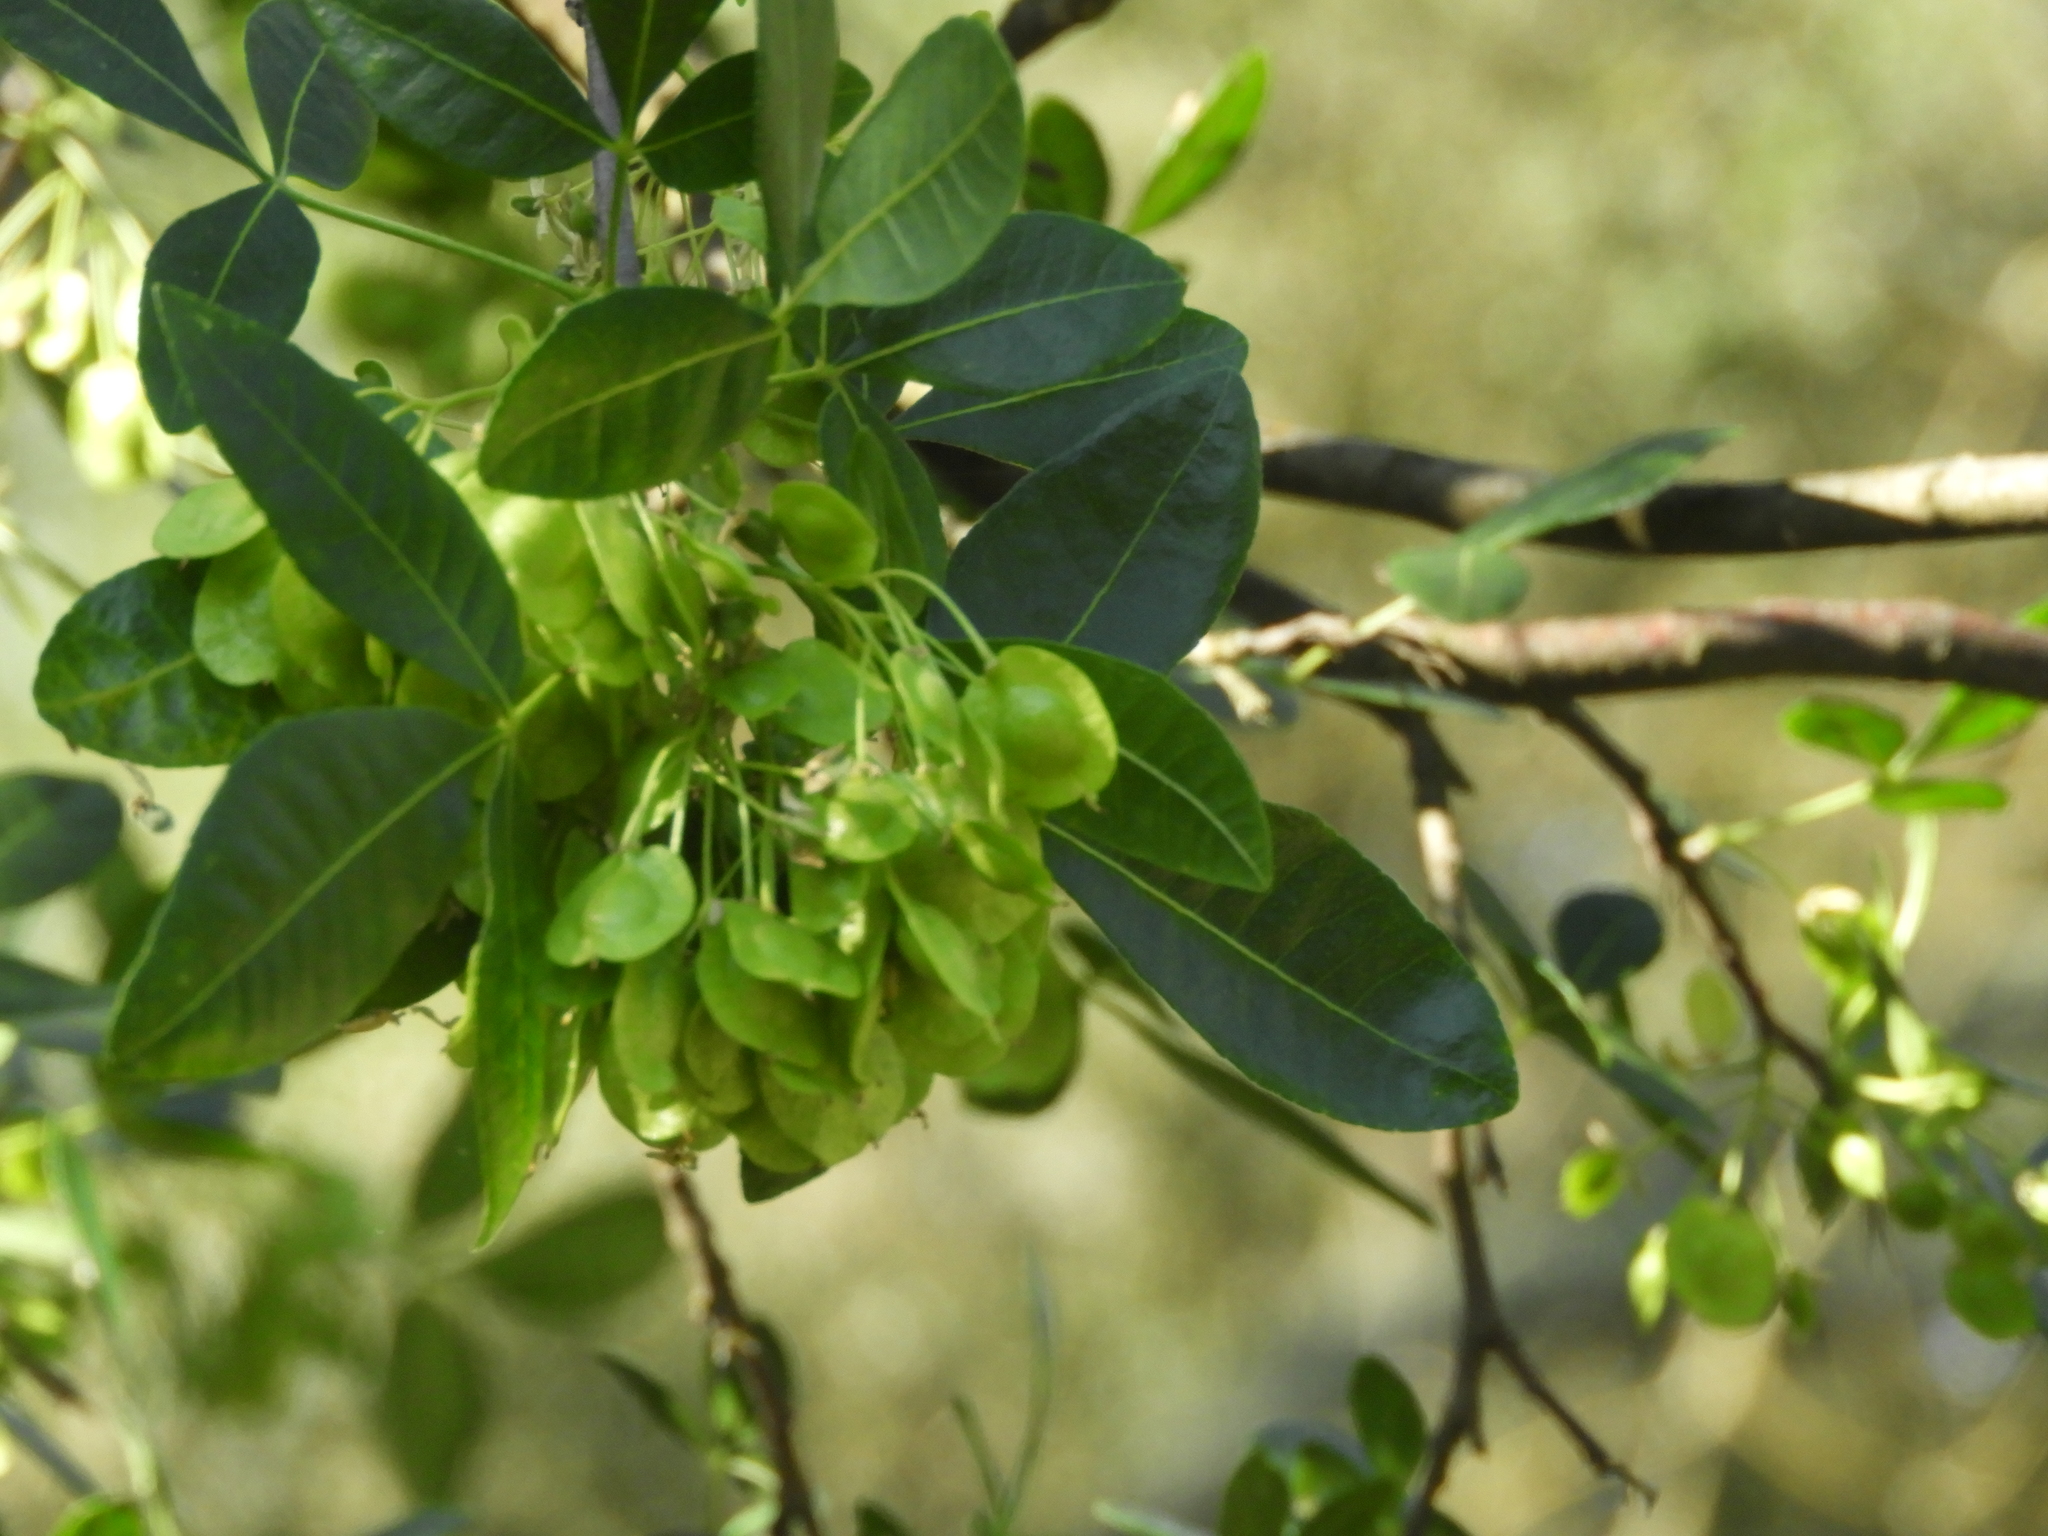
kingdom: Plantae
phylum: Tracheophyta
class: Magnoliopsida
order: Sapindales
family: Rutaceae
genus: Ptelea
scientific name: Ptelea crenulata
